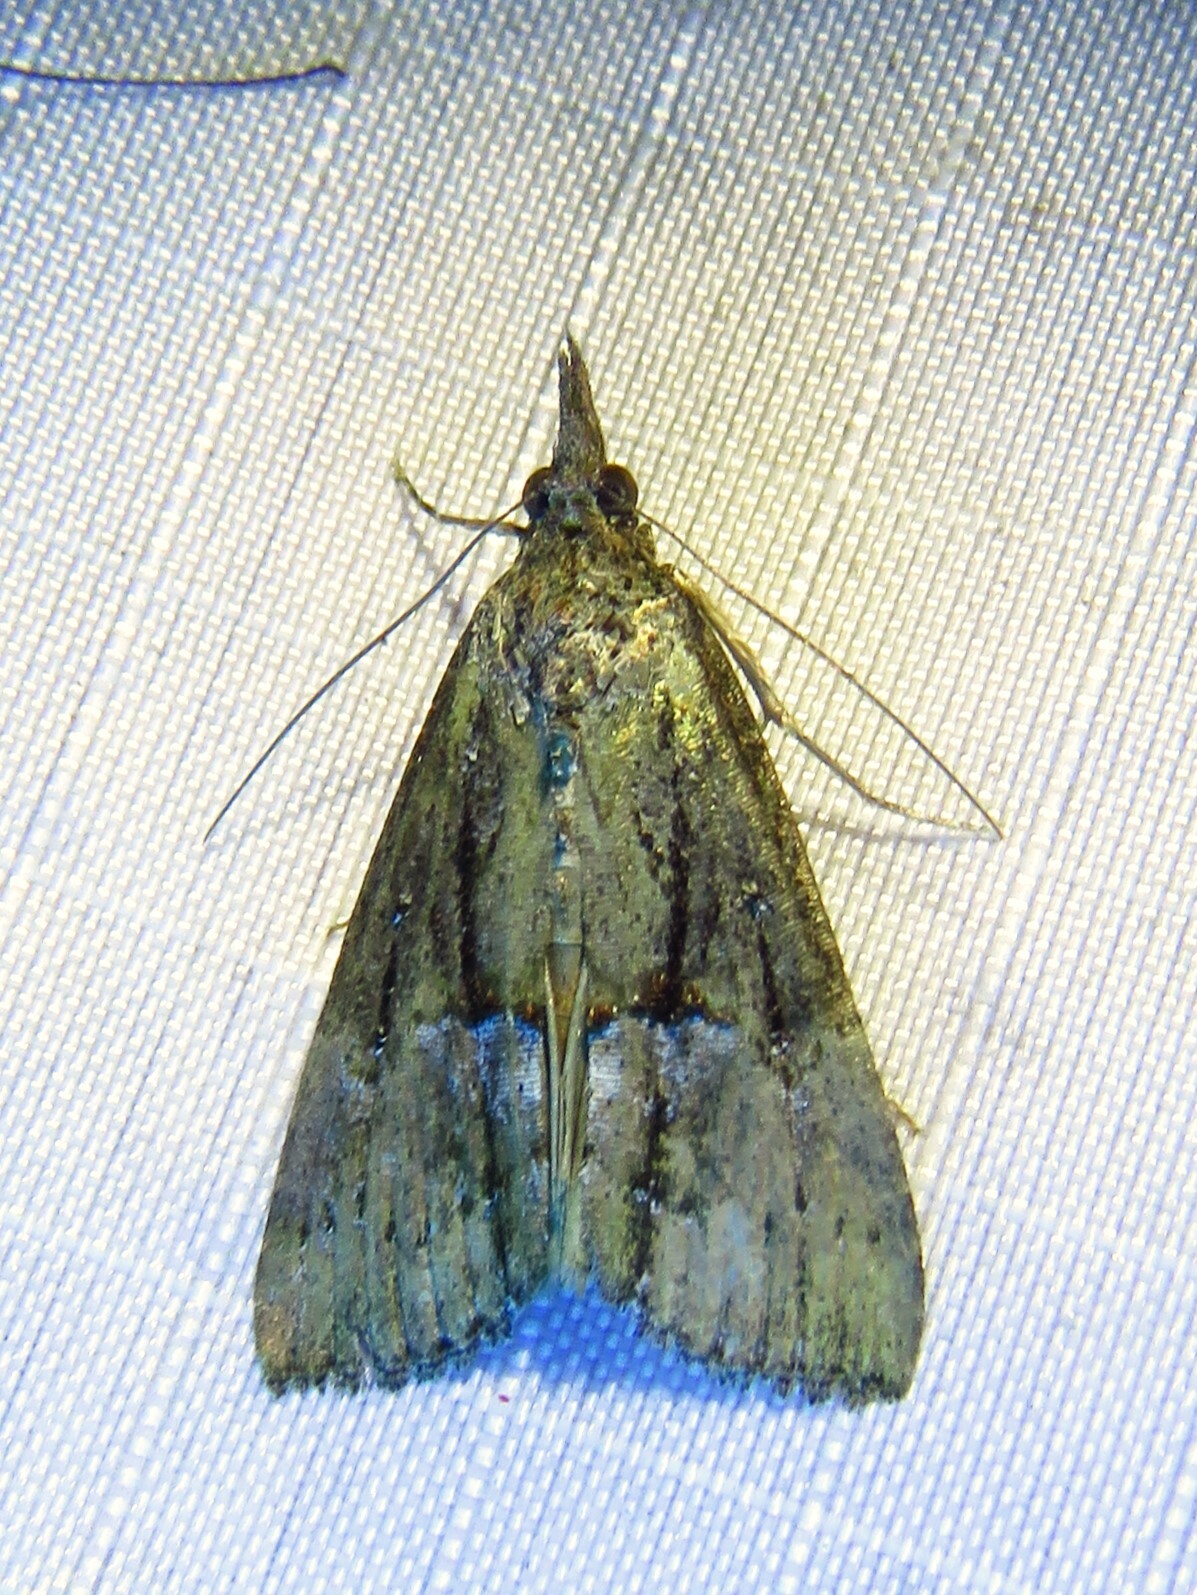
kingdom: Animalia
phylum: Arthropoda
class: Insecta
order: Lepidoptera
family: Erebidae
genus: Hypena
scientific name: Hypena scabra
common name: Green cloverworm
